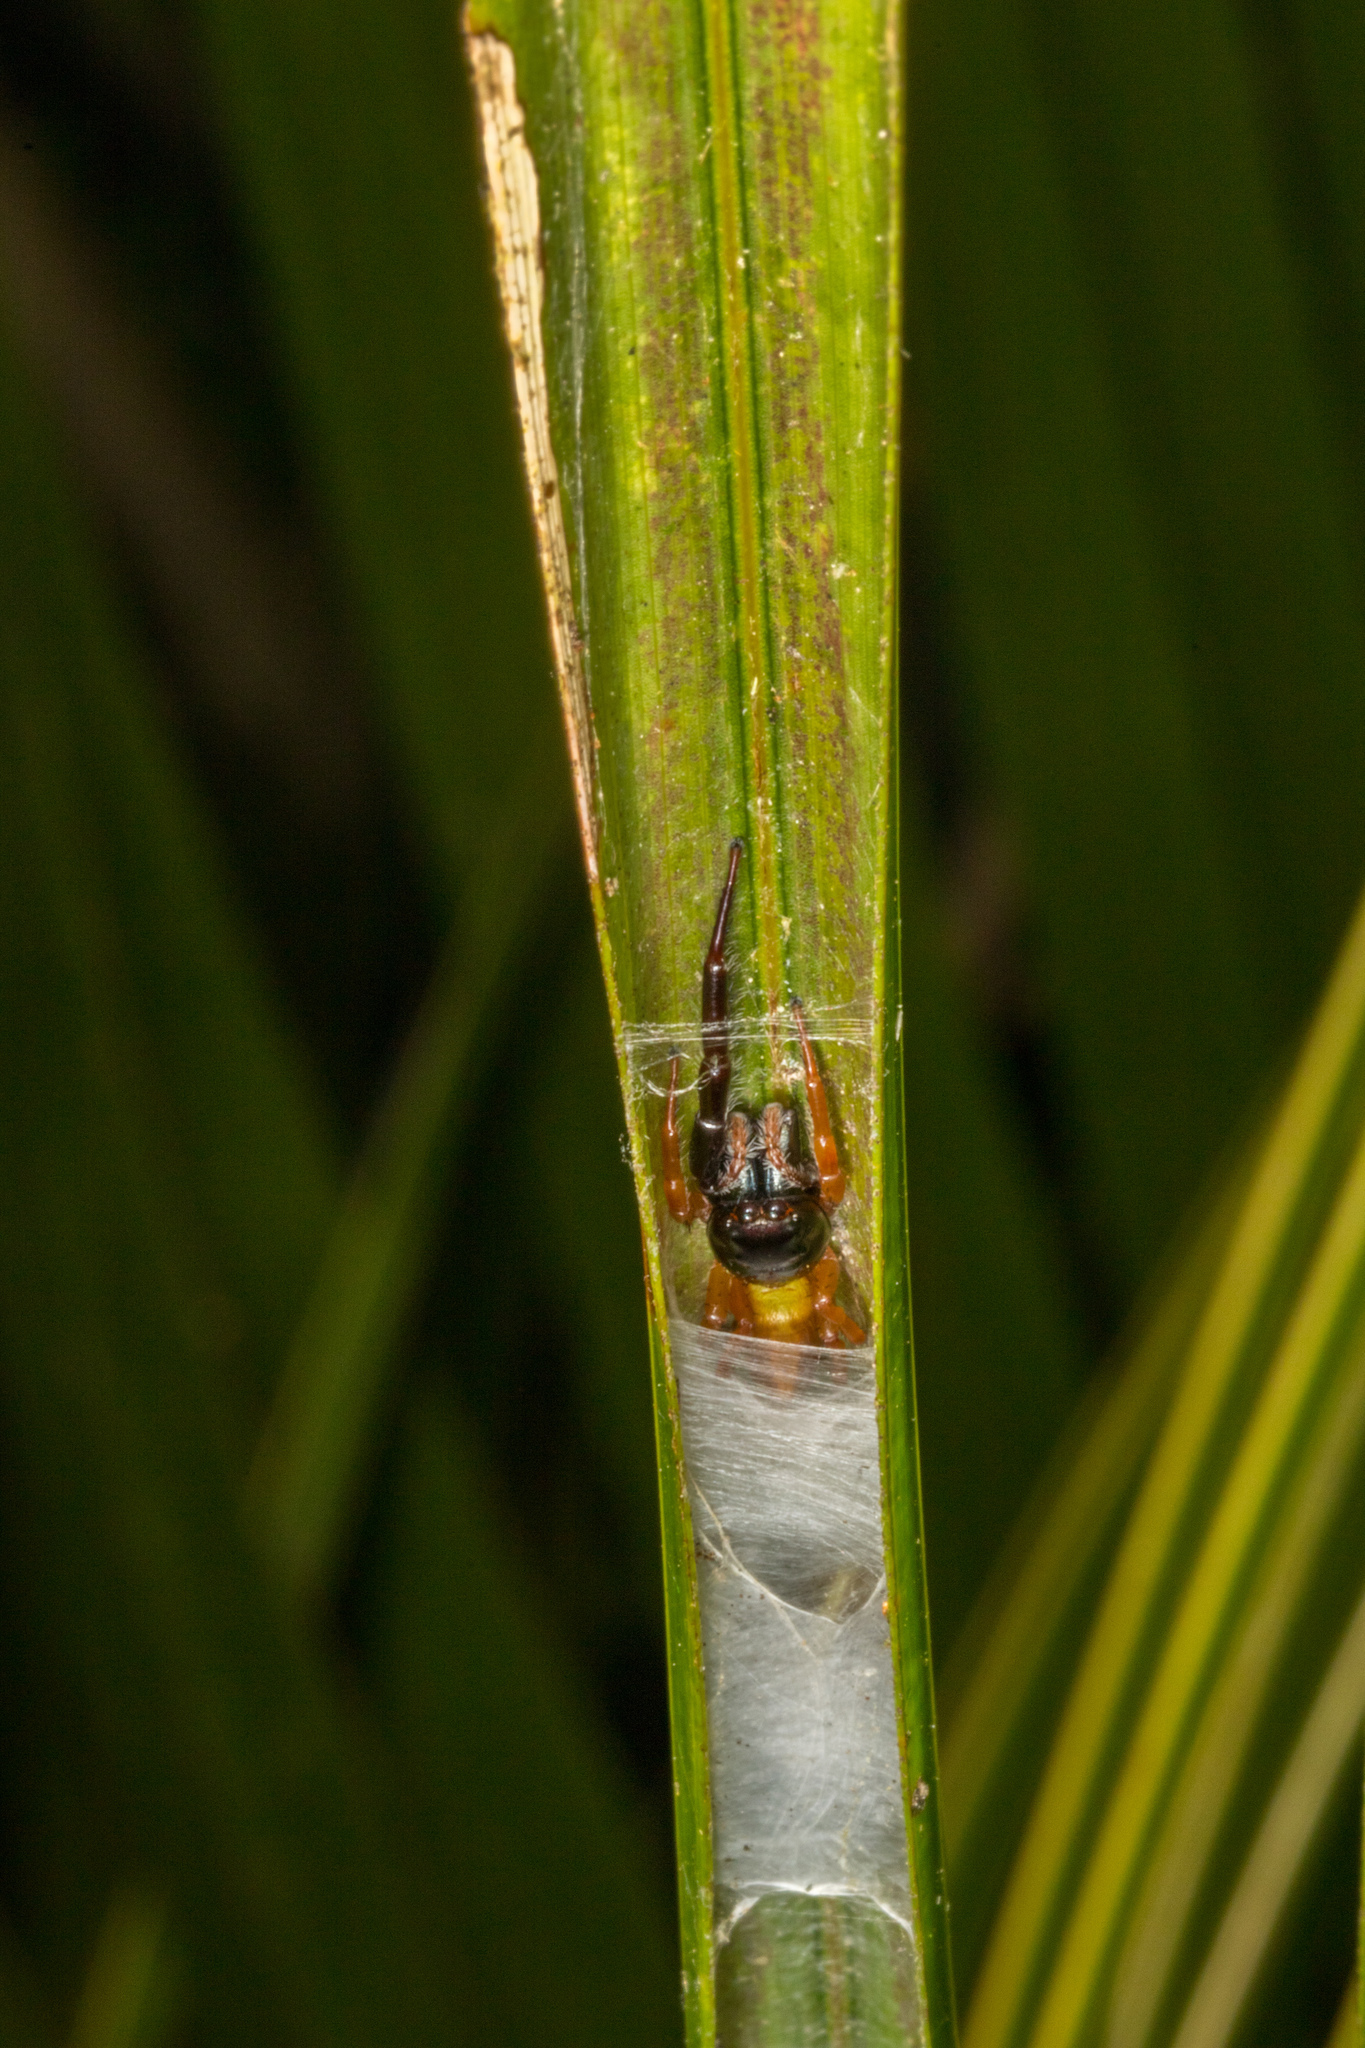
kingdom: Animalia
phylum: Arthropoda
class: Arachnida
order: Araneae
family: Salticidae
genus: Trite
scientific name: Trite planiceps
